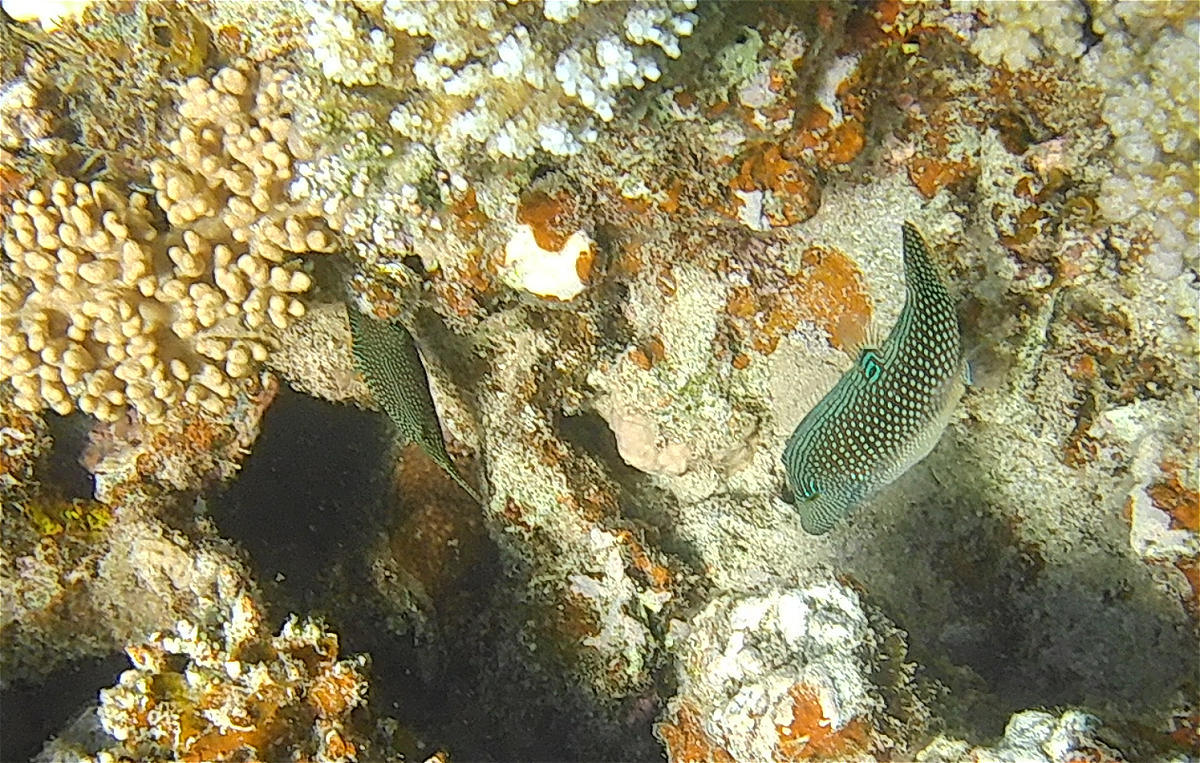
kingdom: Animalia
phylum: Chordata
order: Tetraodontiformes
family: Tetraodontidae
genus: Canthigaster
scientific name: Canthigaster margaritata
